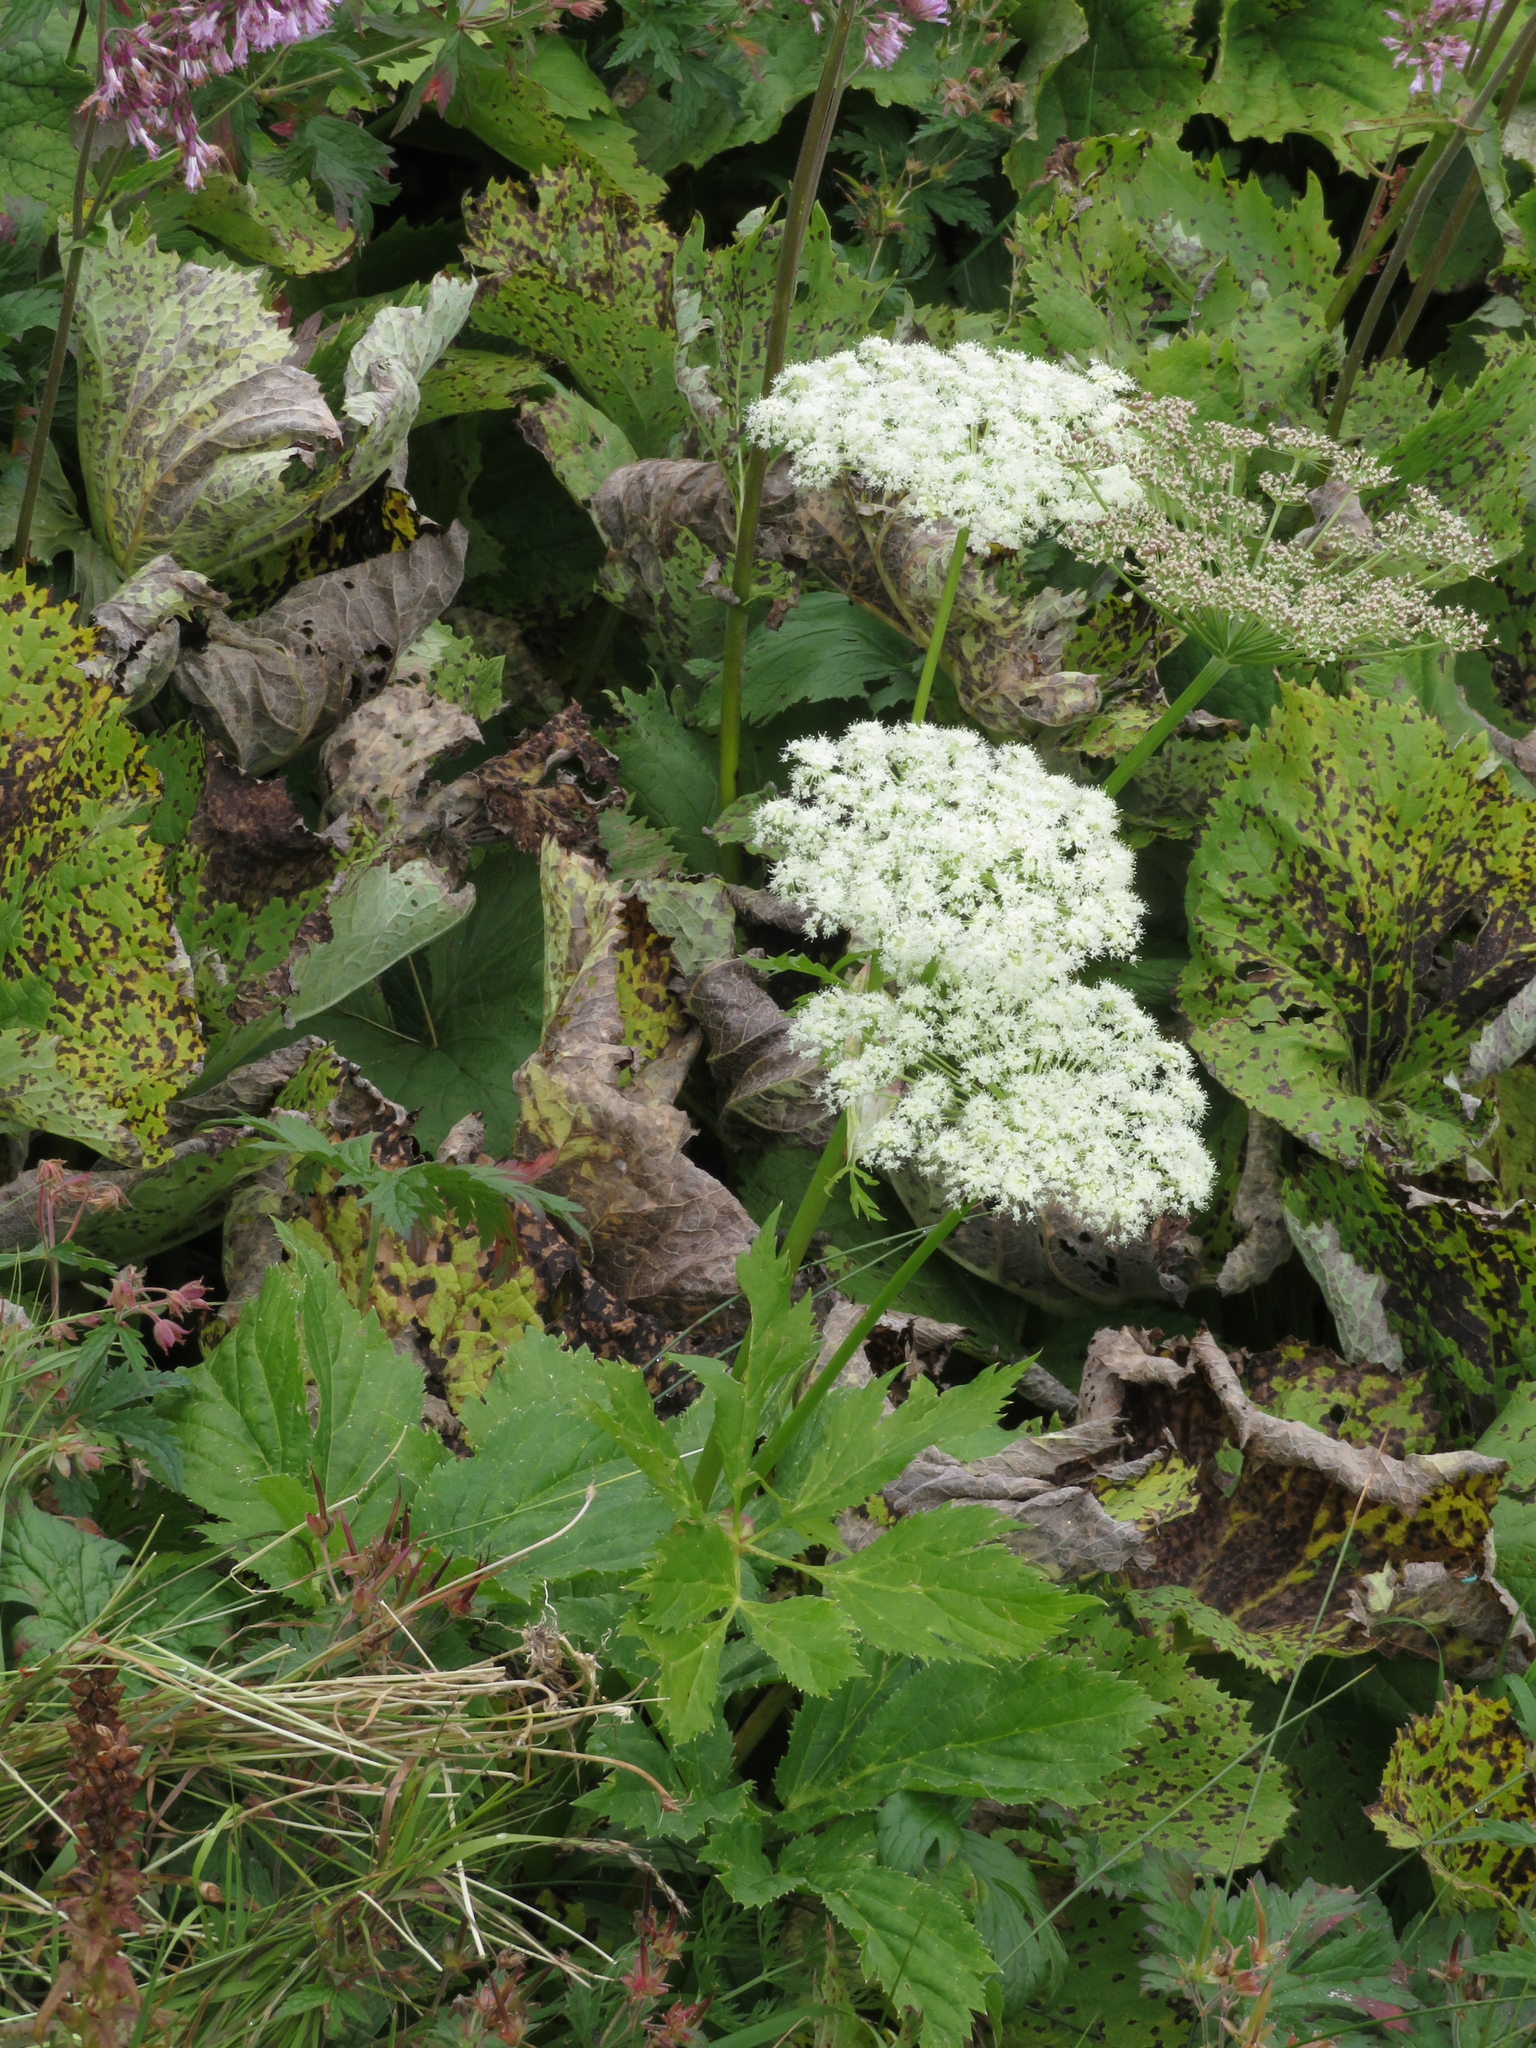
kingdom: Plantae
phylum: Tracheophyta
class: Magnoliopsida
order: Apiales
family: Apiaceae
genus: Imperatoria
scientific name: Imperatoria ostruthium
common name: Masterwort
